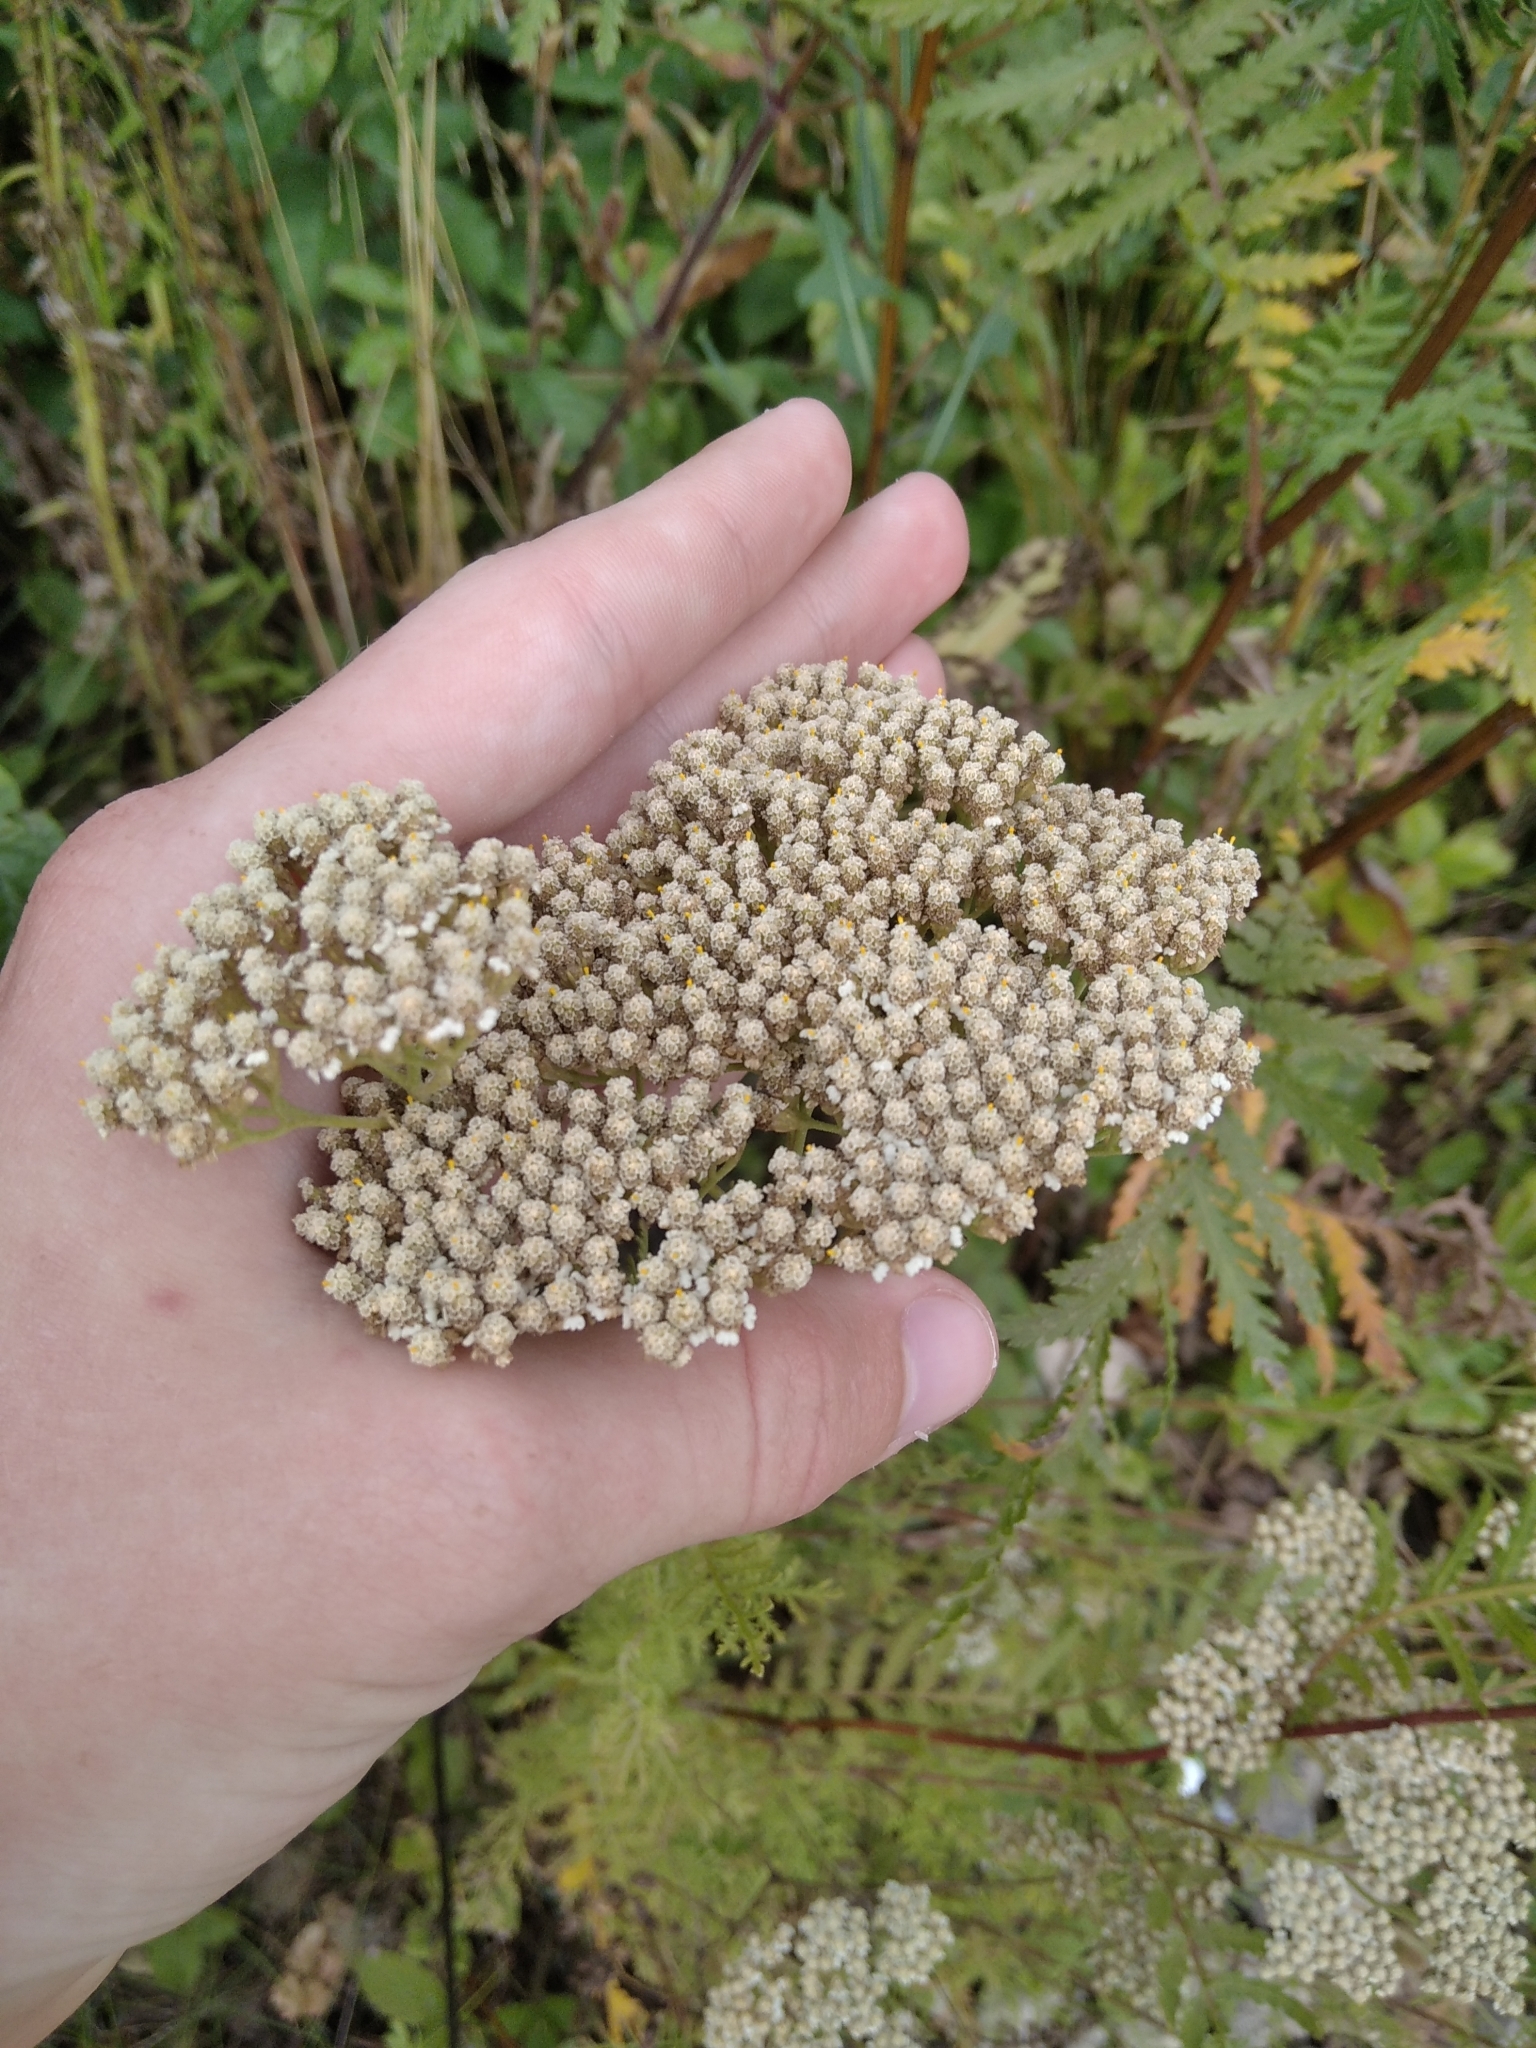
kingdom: Plantae
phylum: Tracheophyta
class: Magnoliopsida
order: Asterales
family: Asteraceae
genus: Achillea
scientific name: Achillea nobilis
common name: Noble yarrow
